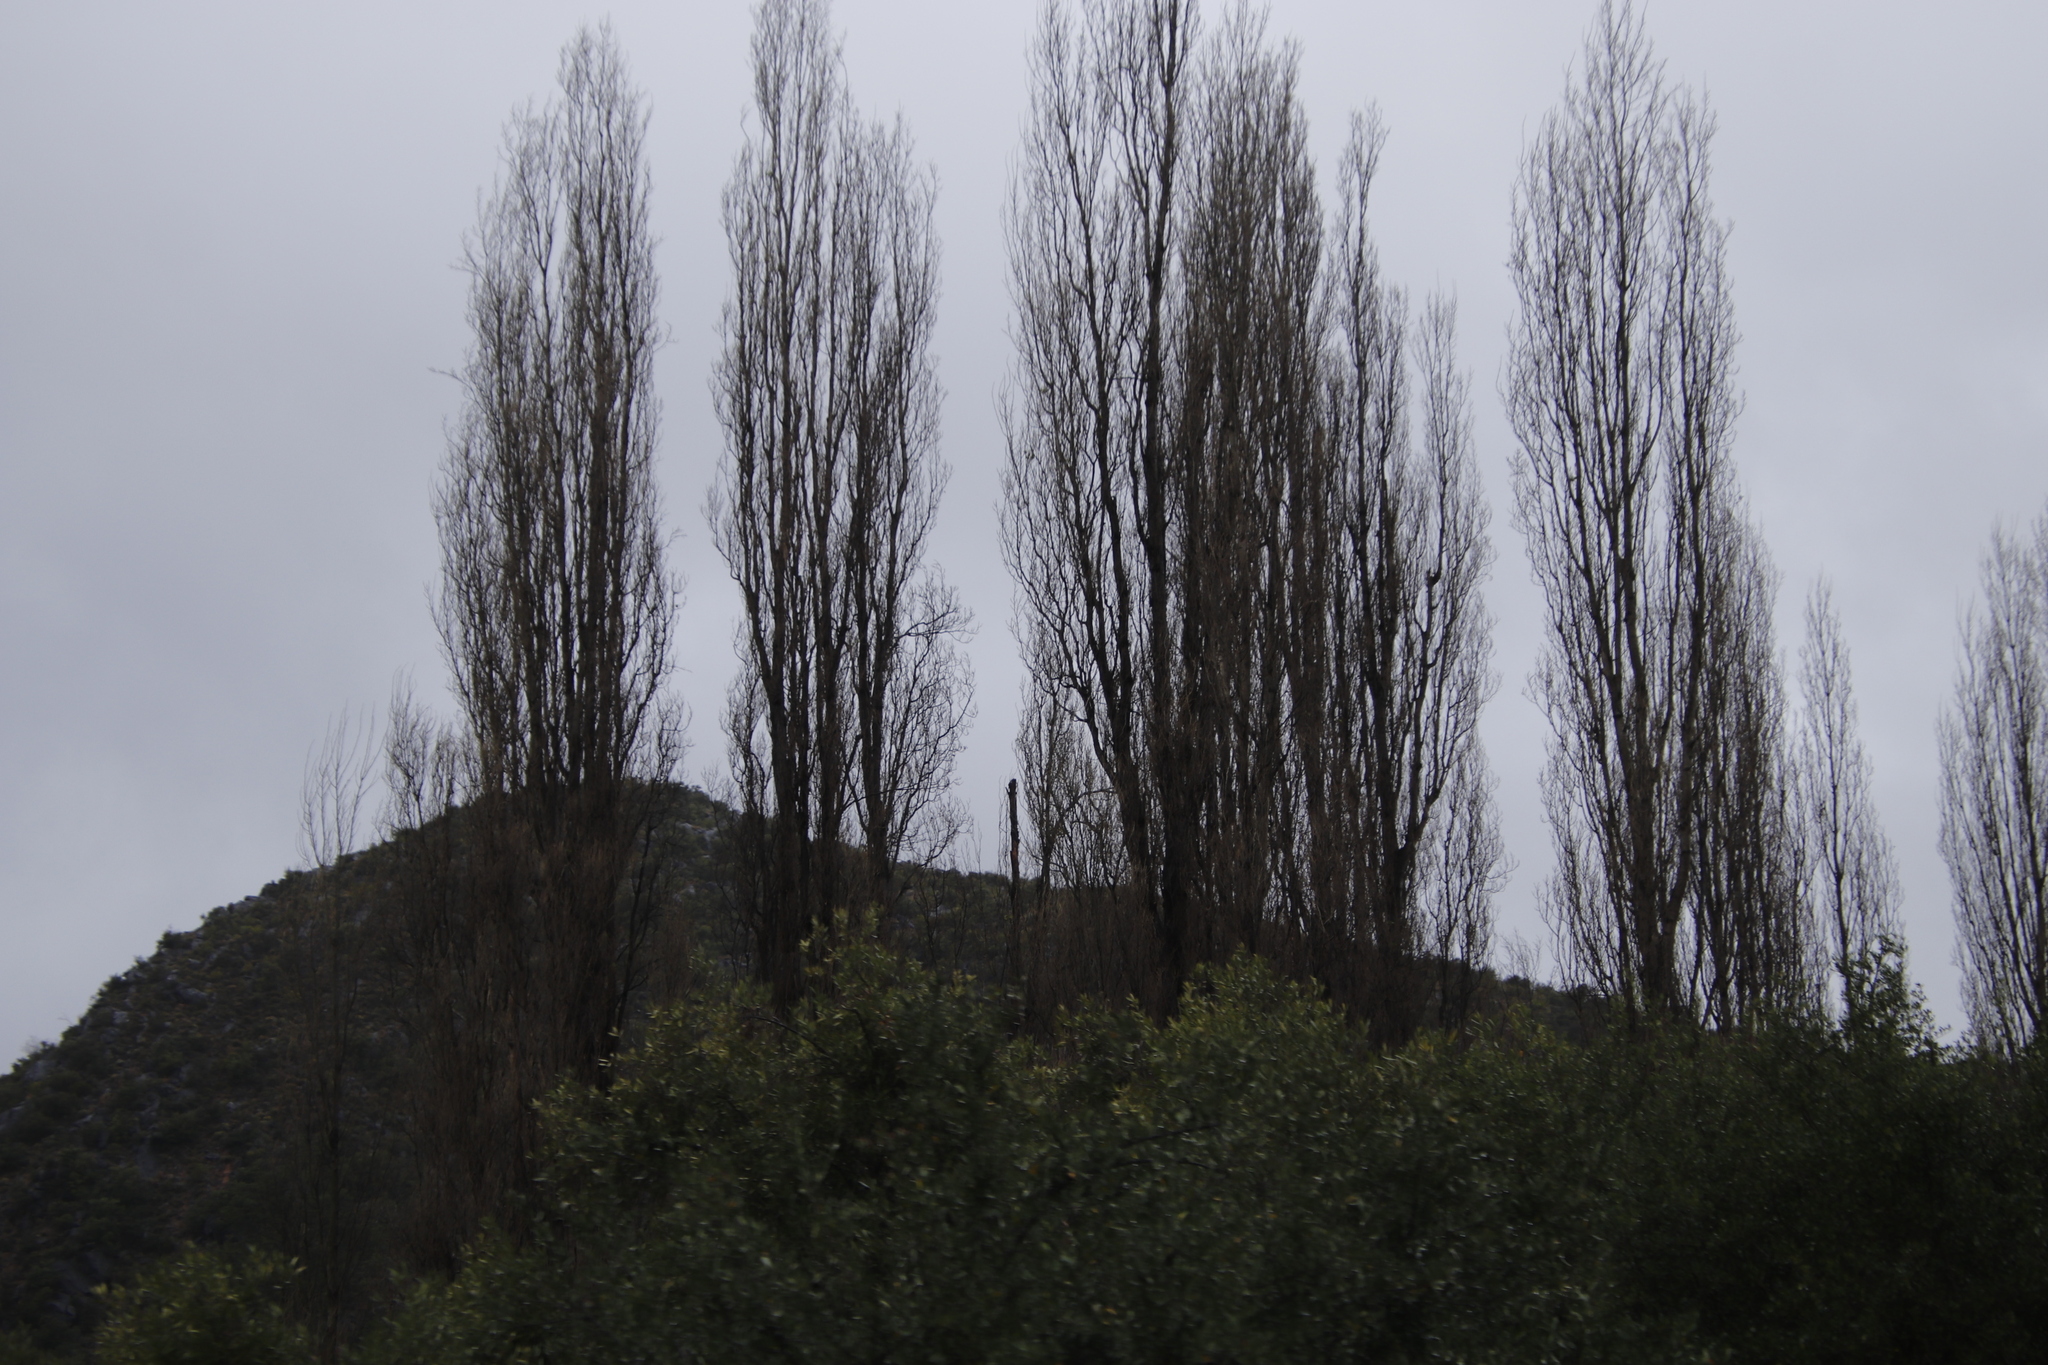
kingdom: Plantae
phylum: Tracheophyta
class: Magnoliopsida
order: Malpighiales
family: Salicaceae
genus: Populus
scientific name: Populus nigra
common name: Black poplar
